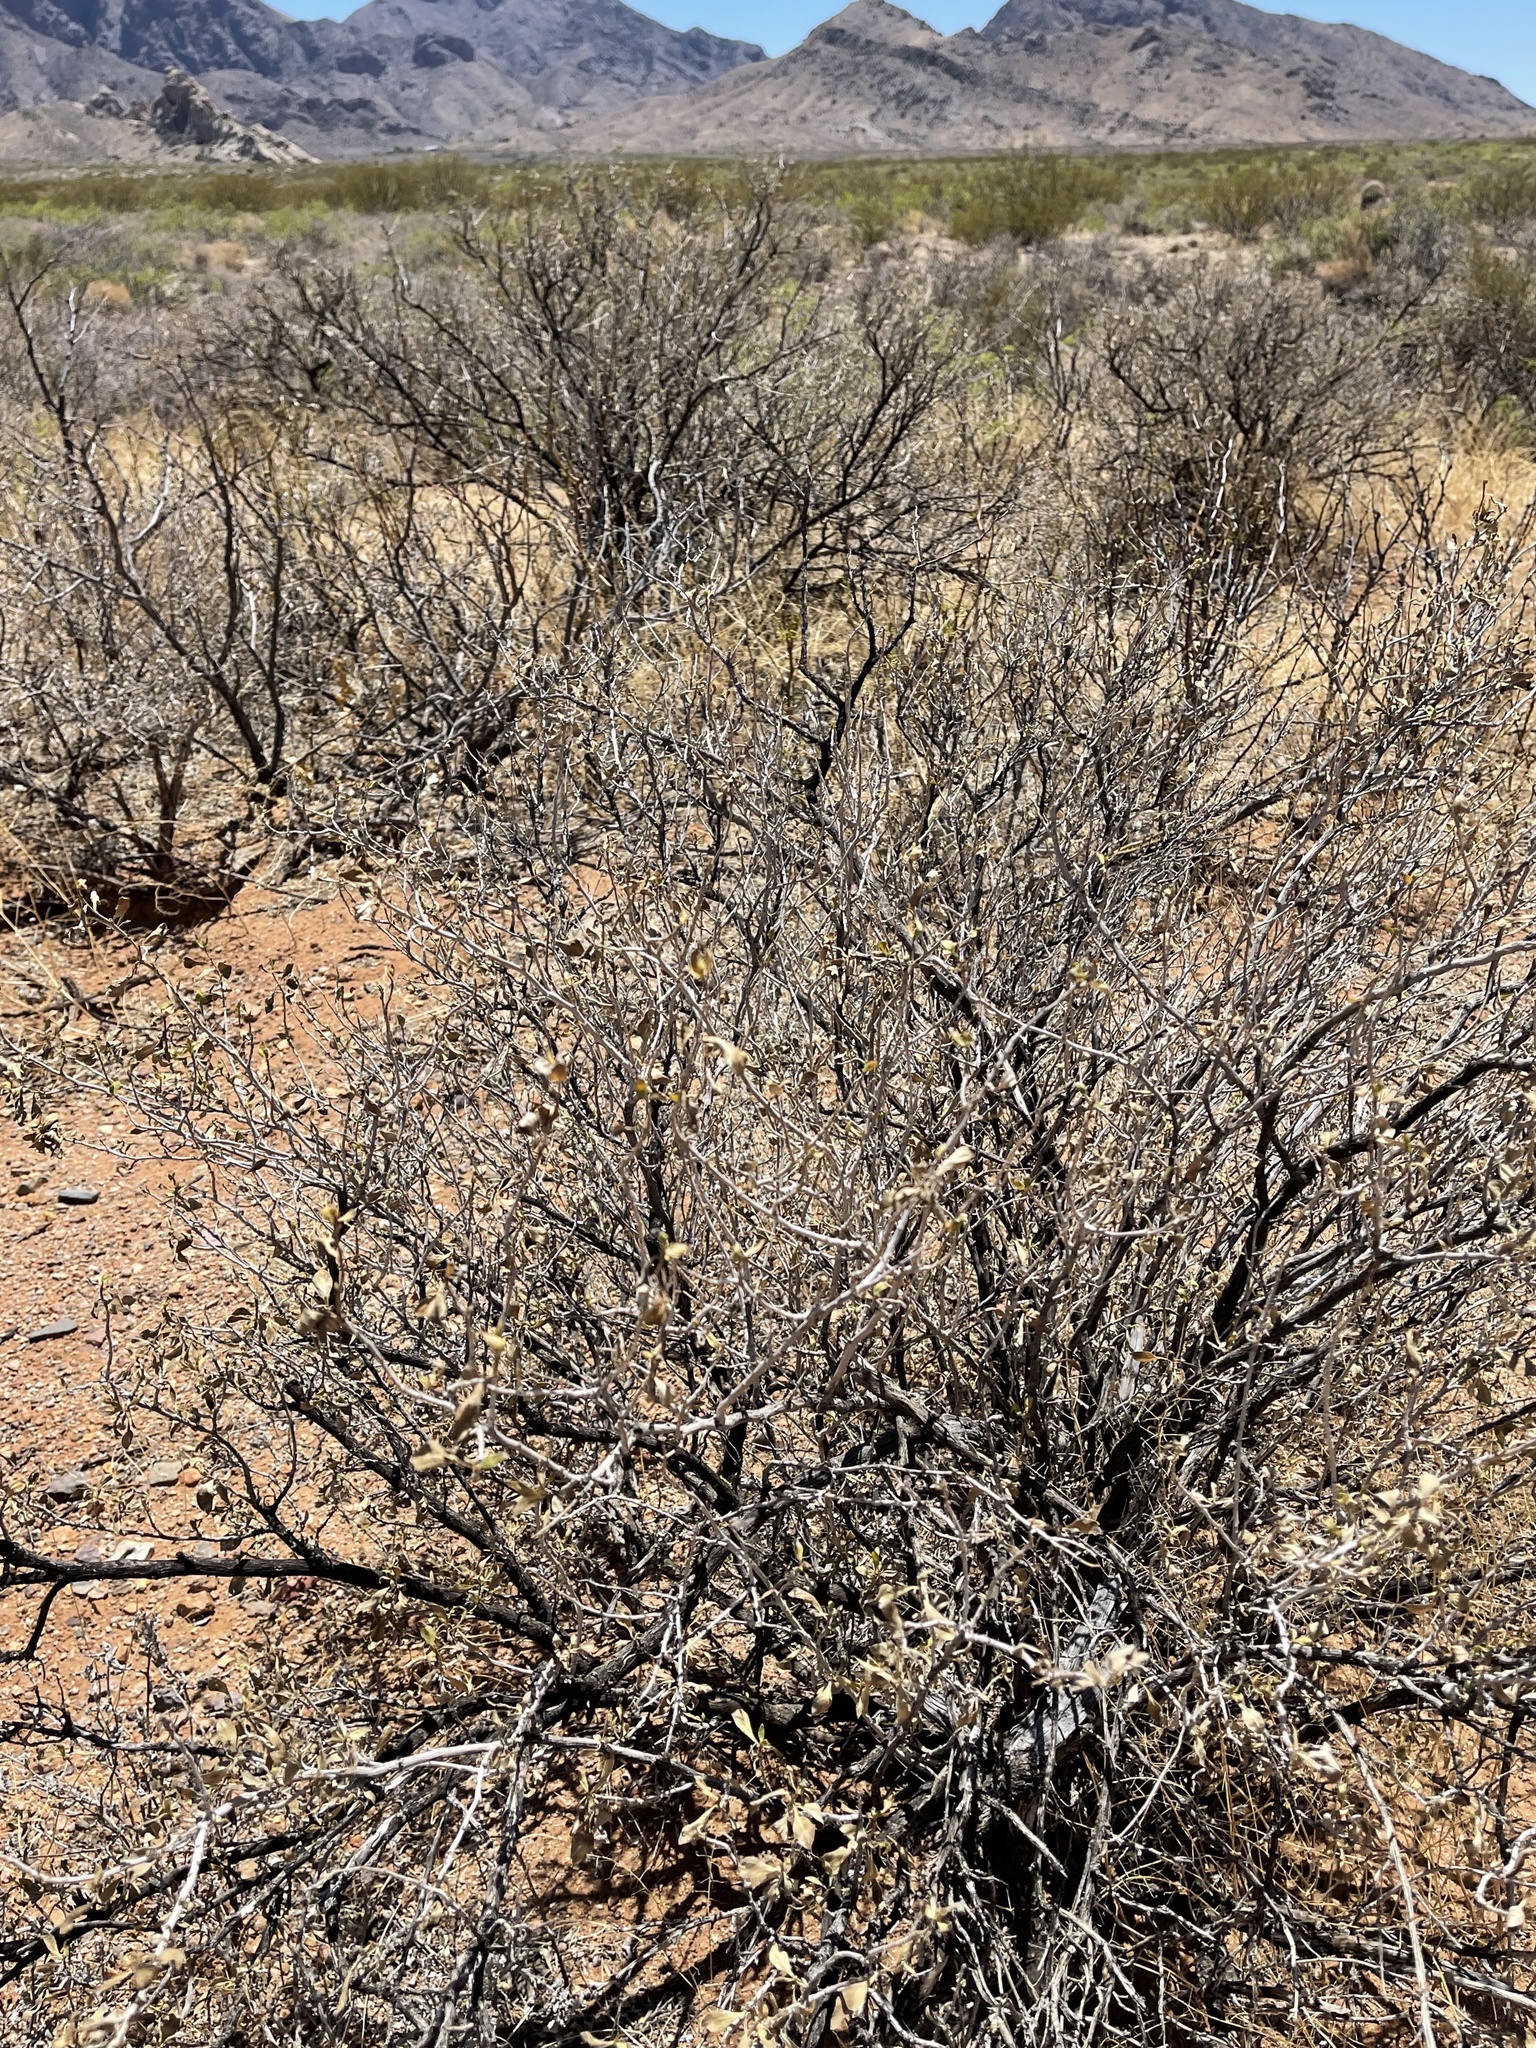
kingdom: Plantae
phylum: Tracheophyta
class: Magnoliopsida
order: Asterales
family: Asteraceae
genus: Flourensia
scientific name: Flourensia cernua
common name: Varnishbush
